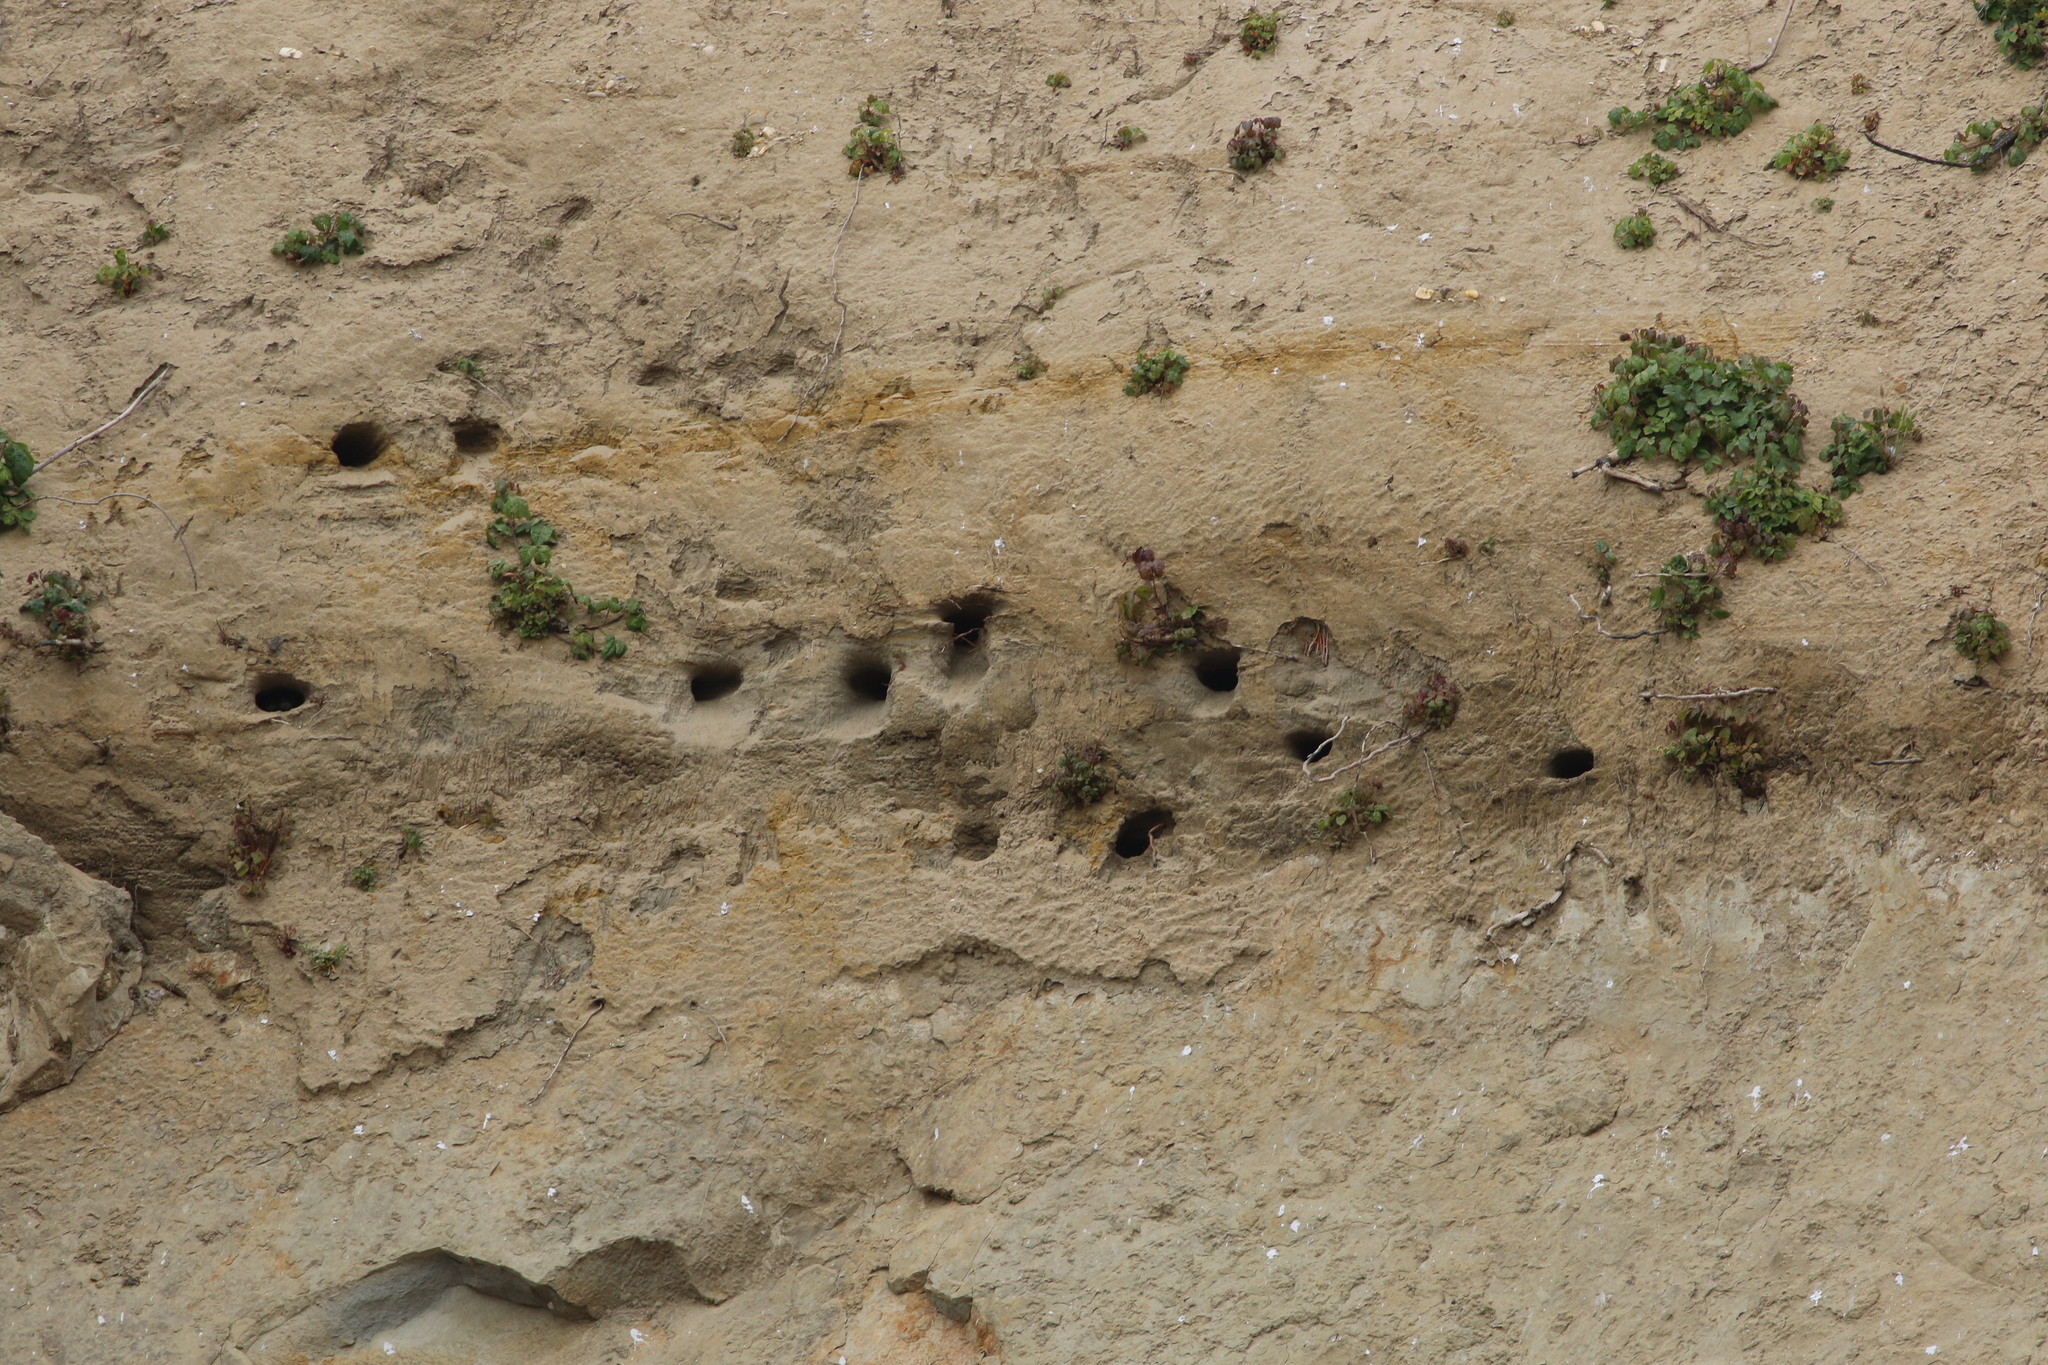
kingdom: Animalia
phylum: Chordata
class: Aves
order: Passeriformes
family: Hirundinidae
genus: Riparia
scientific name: Riparia riparia
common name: Sand martin
